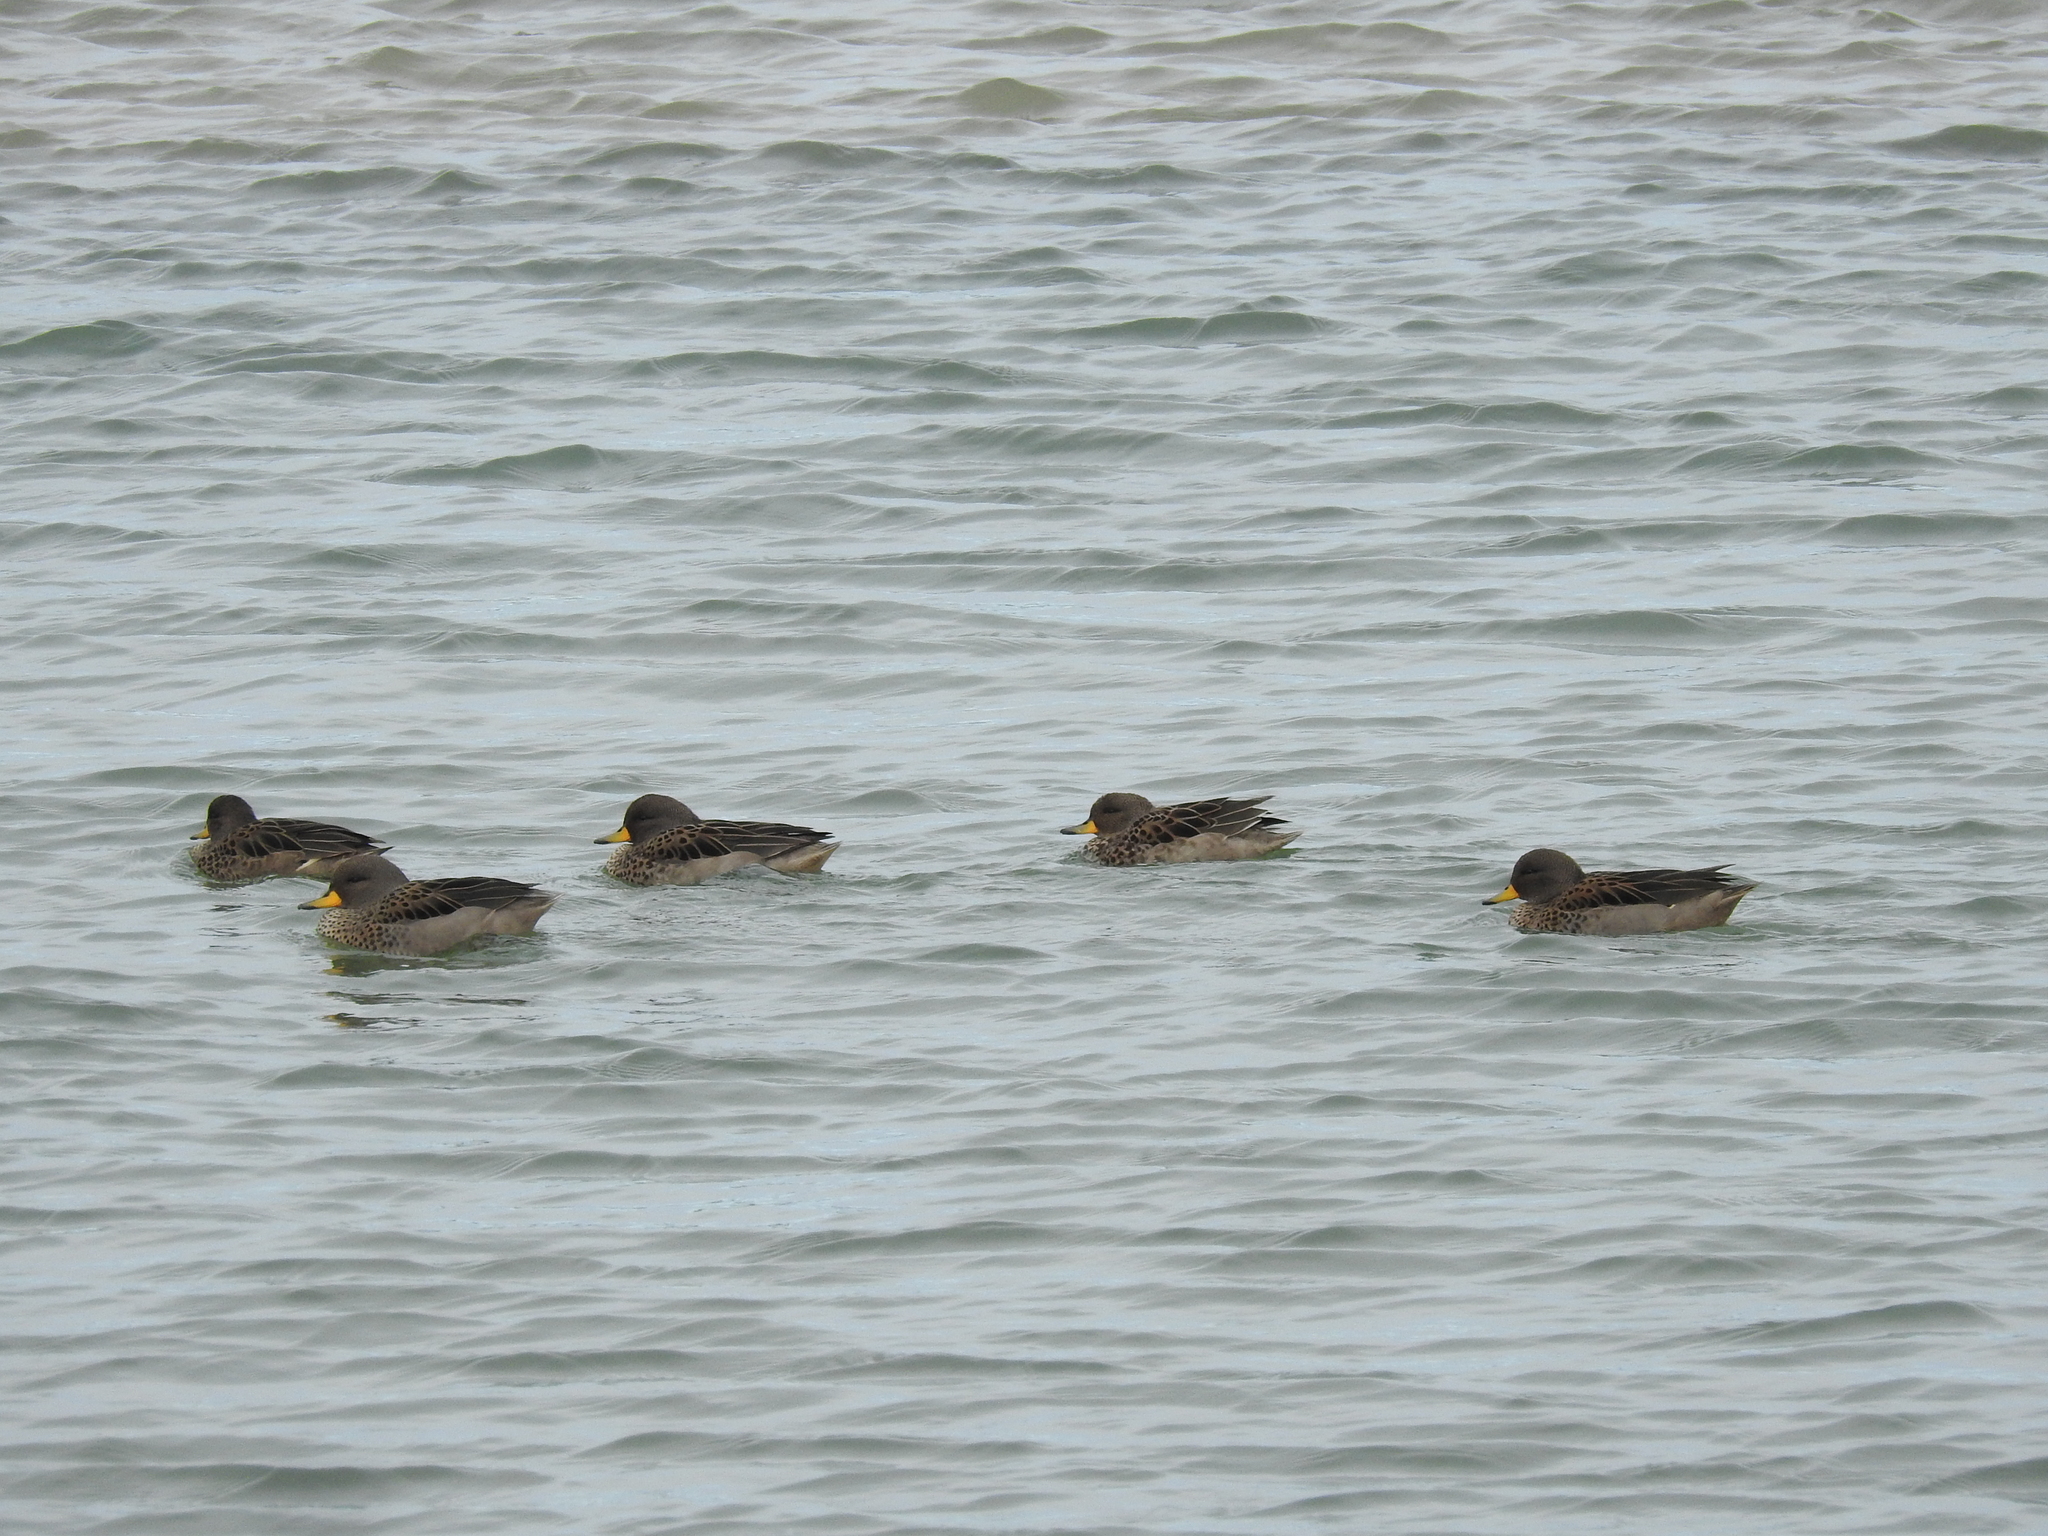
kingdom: Animalia
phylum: Chordata
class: Aves
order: Anseriformes
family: Anatidae
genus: Anas
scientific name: Anas flavirostris
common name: Yellow-billed teal
